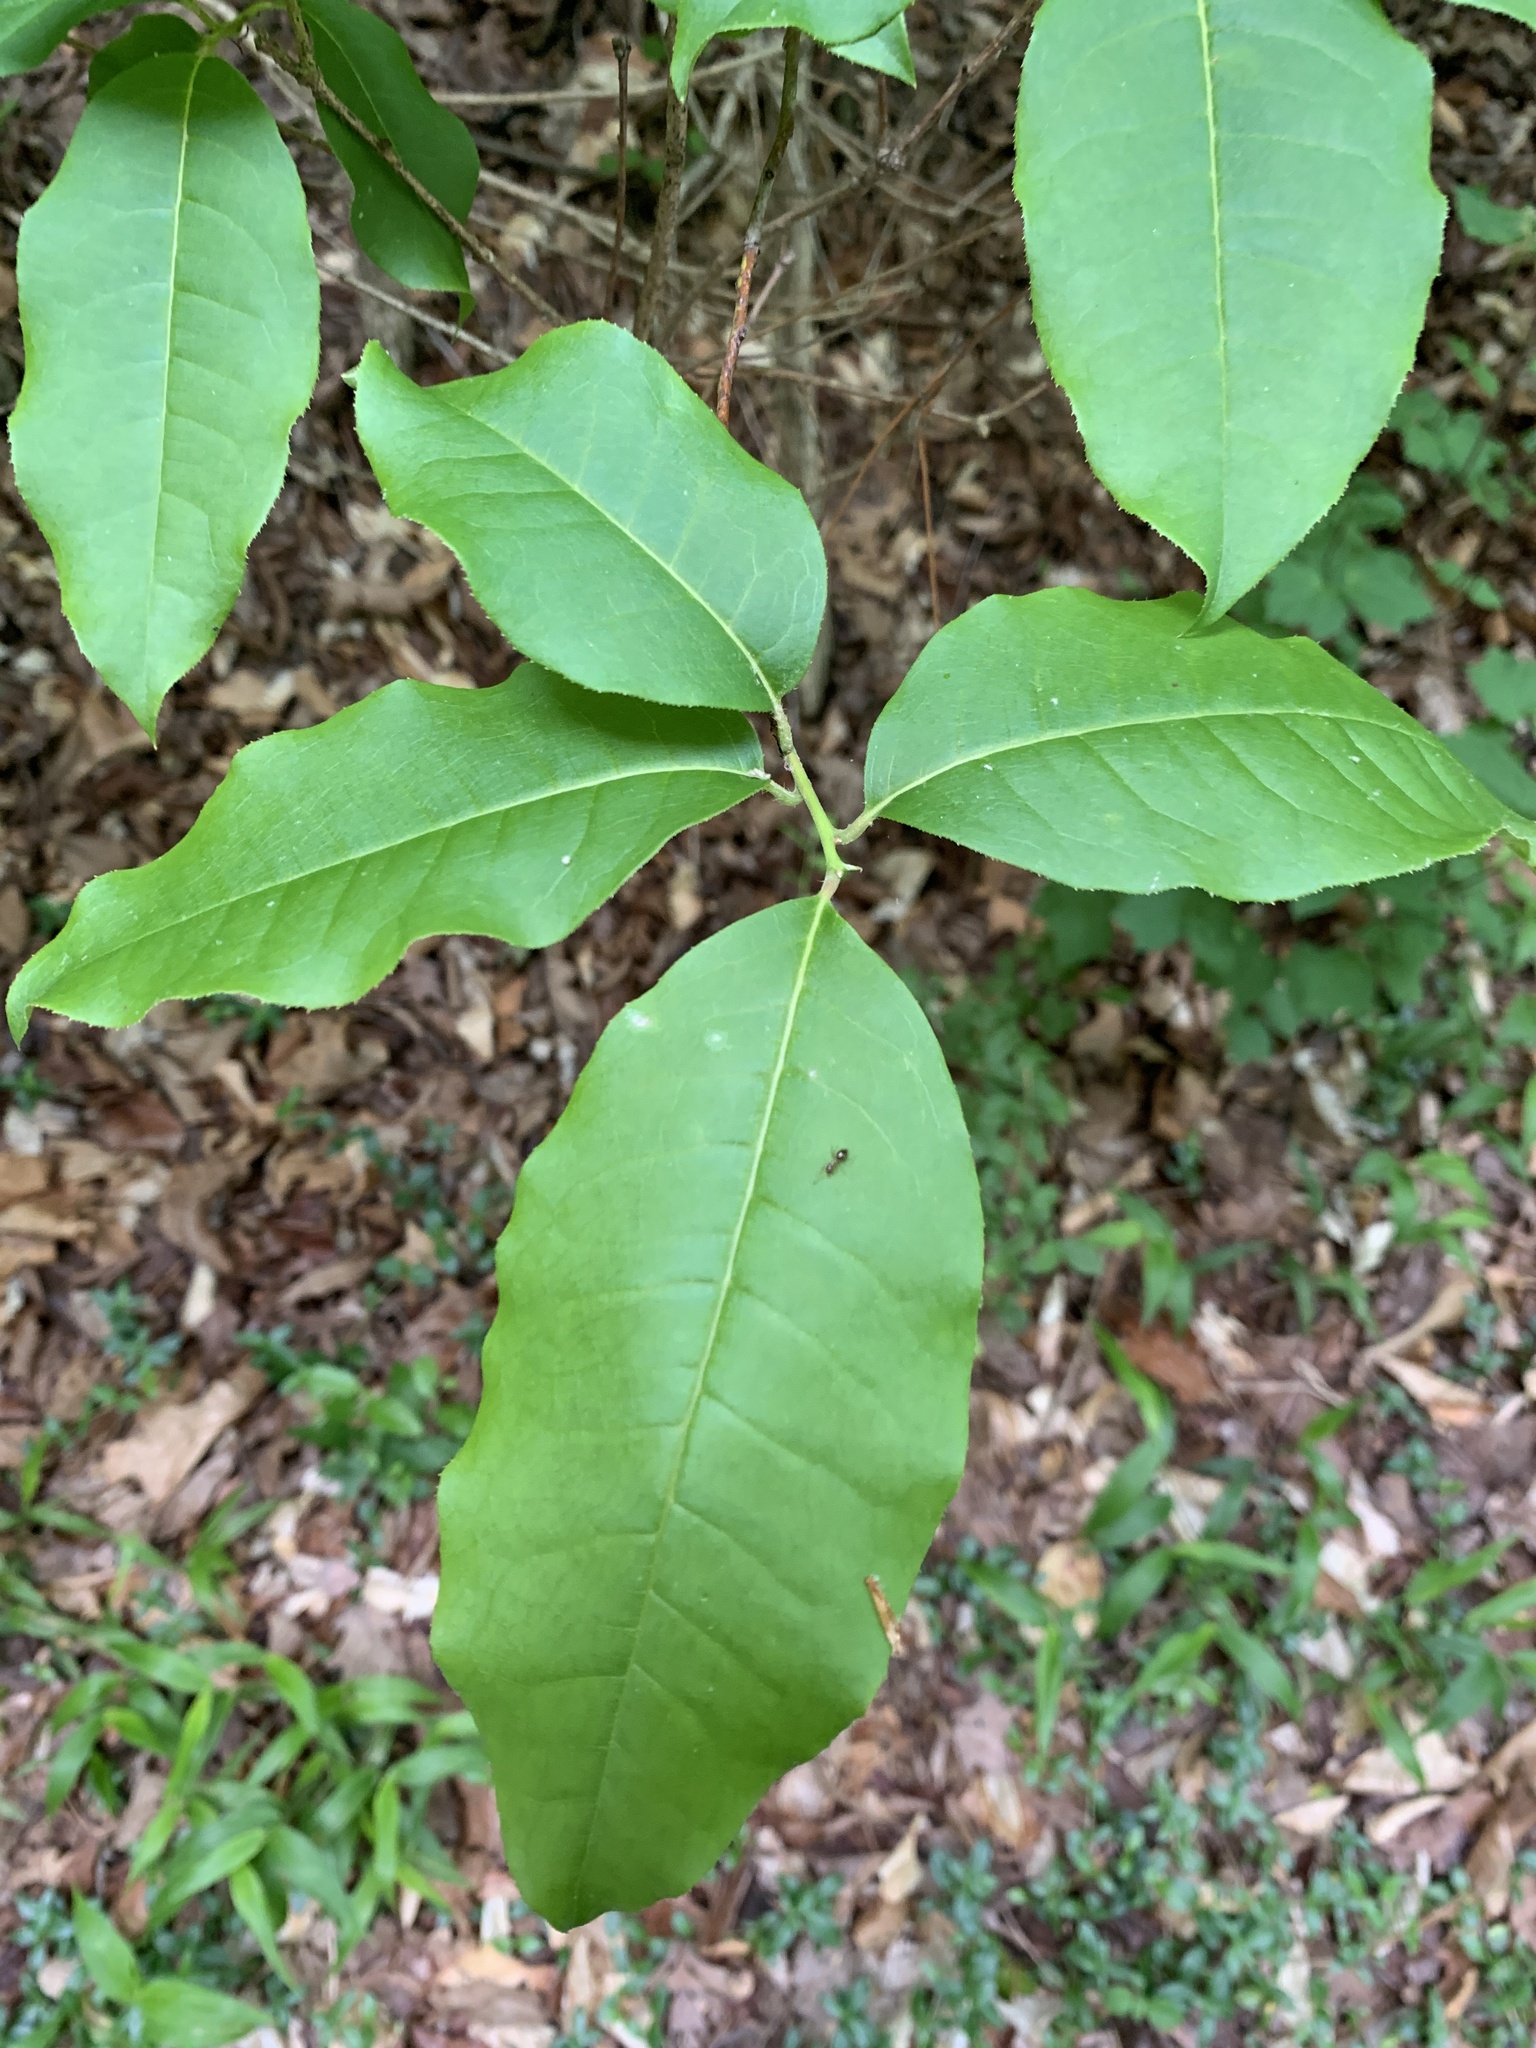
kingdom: Plantae
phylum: Tracheophyta
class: Magnoliopsida
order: Ericales
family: Ericaceae
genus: Oxydendrum
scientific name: Oxydendrum arboreum
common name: Sourwood
